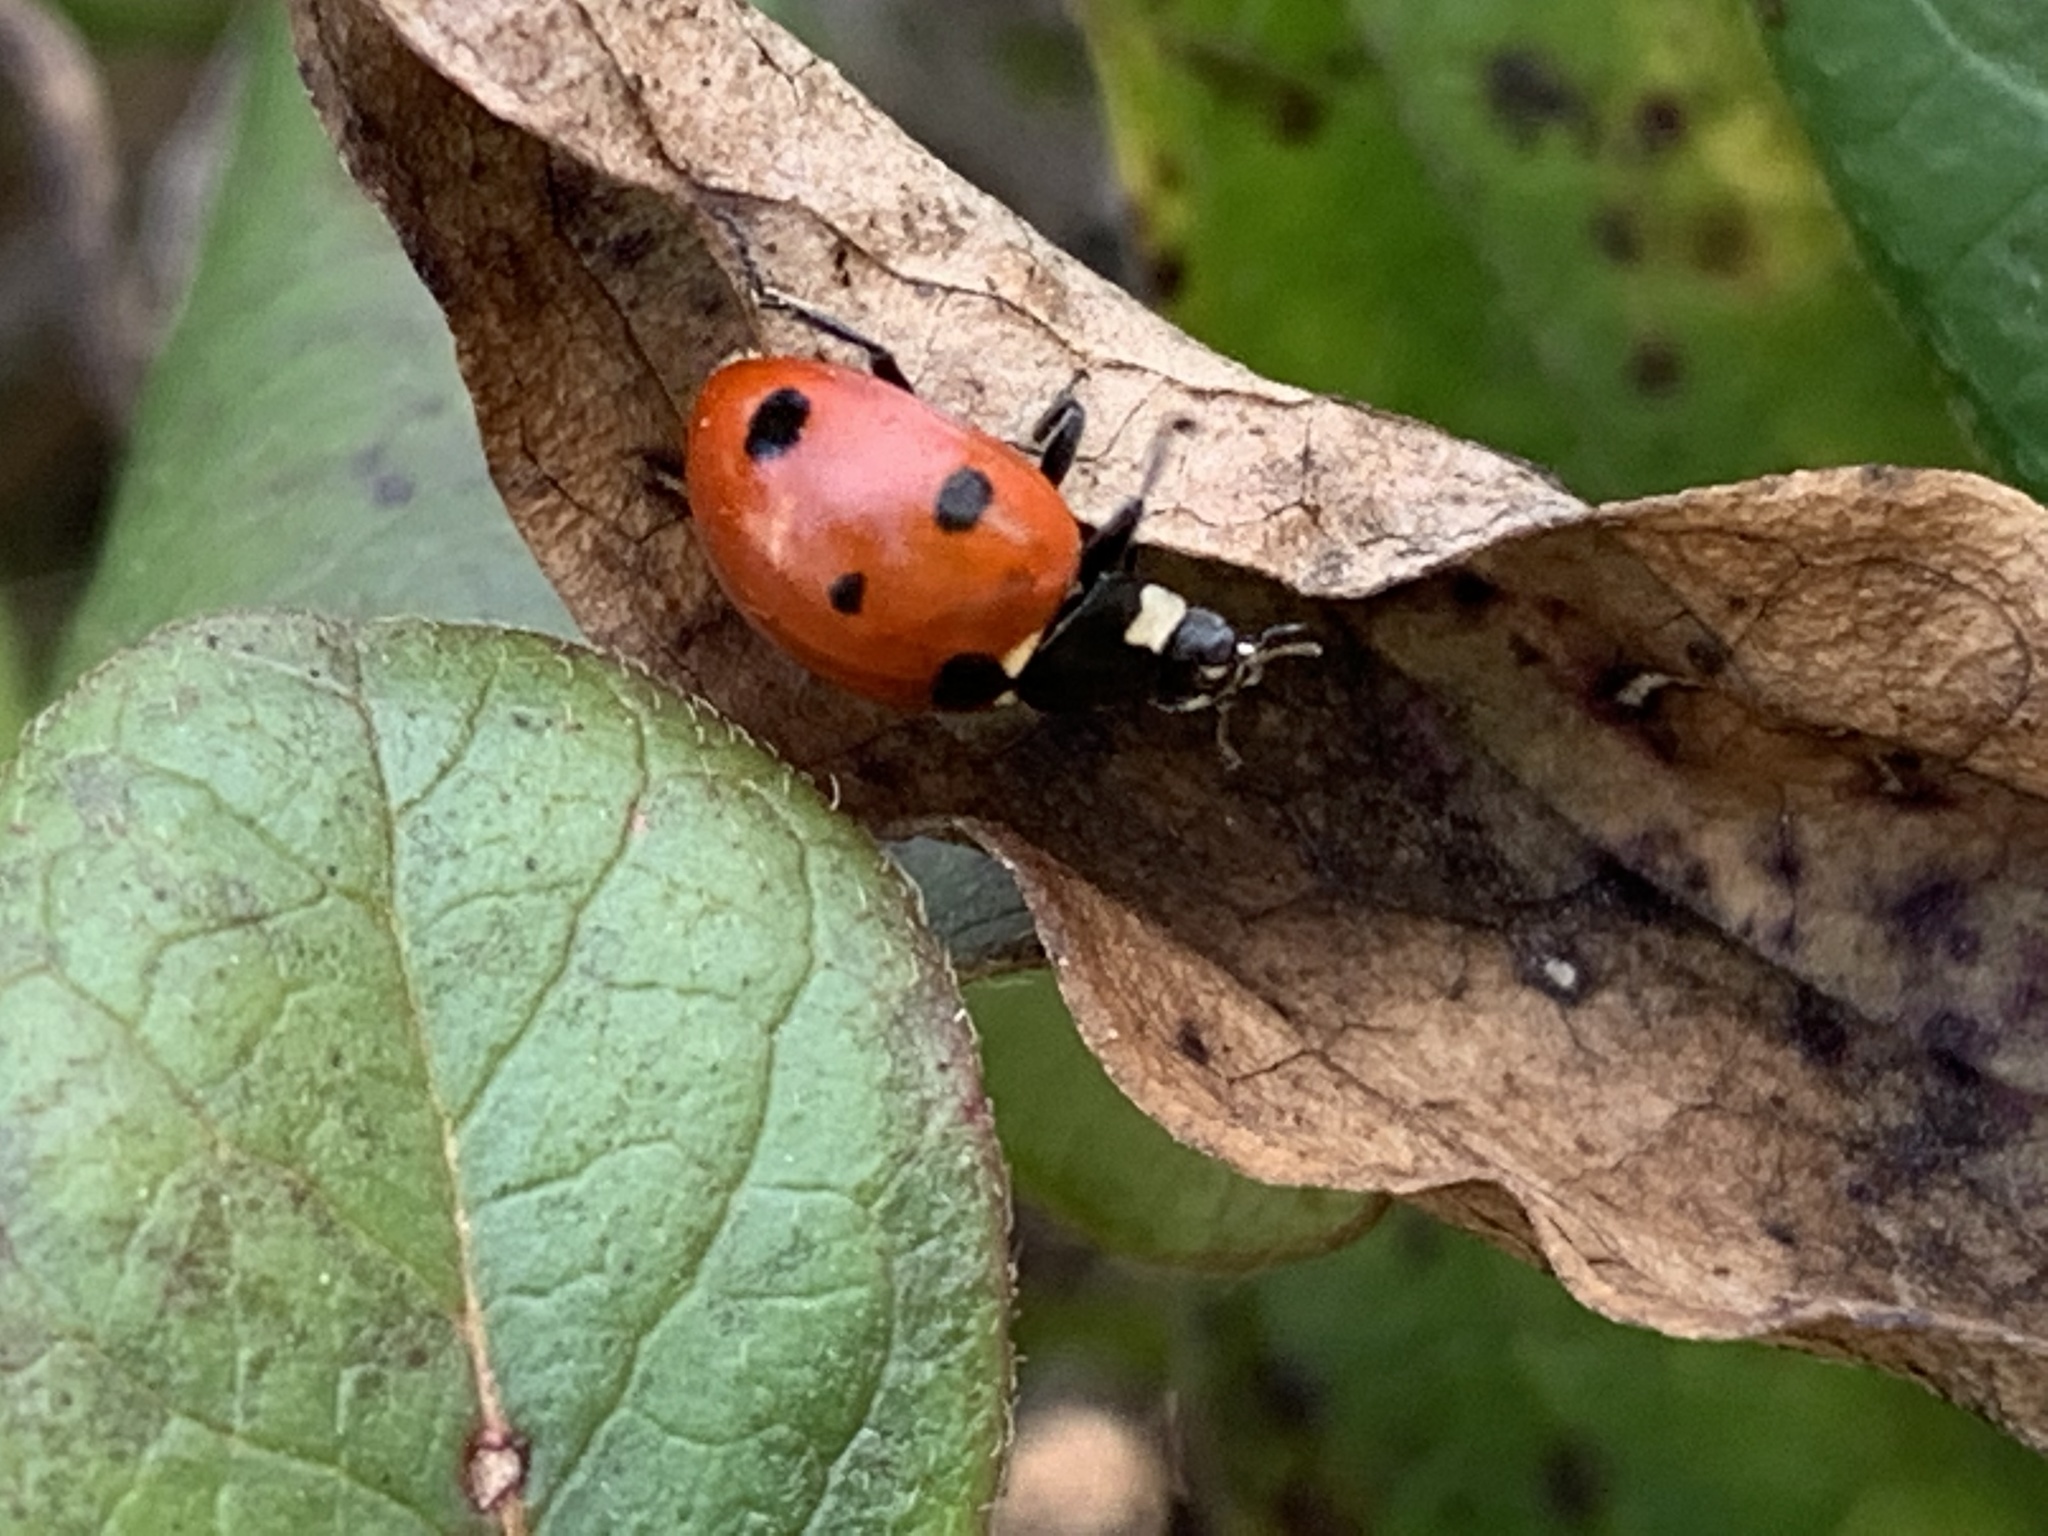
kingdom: Animalia
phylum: Arthropoda
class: Insecta
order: Coleoptera
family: Coccinellidae
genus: Coccinella
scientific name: Coccinella septempunctata
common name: Sevenspotted lady beetle
